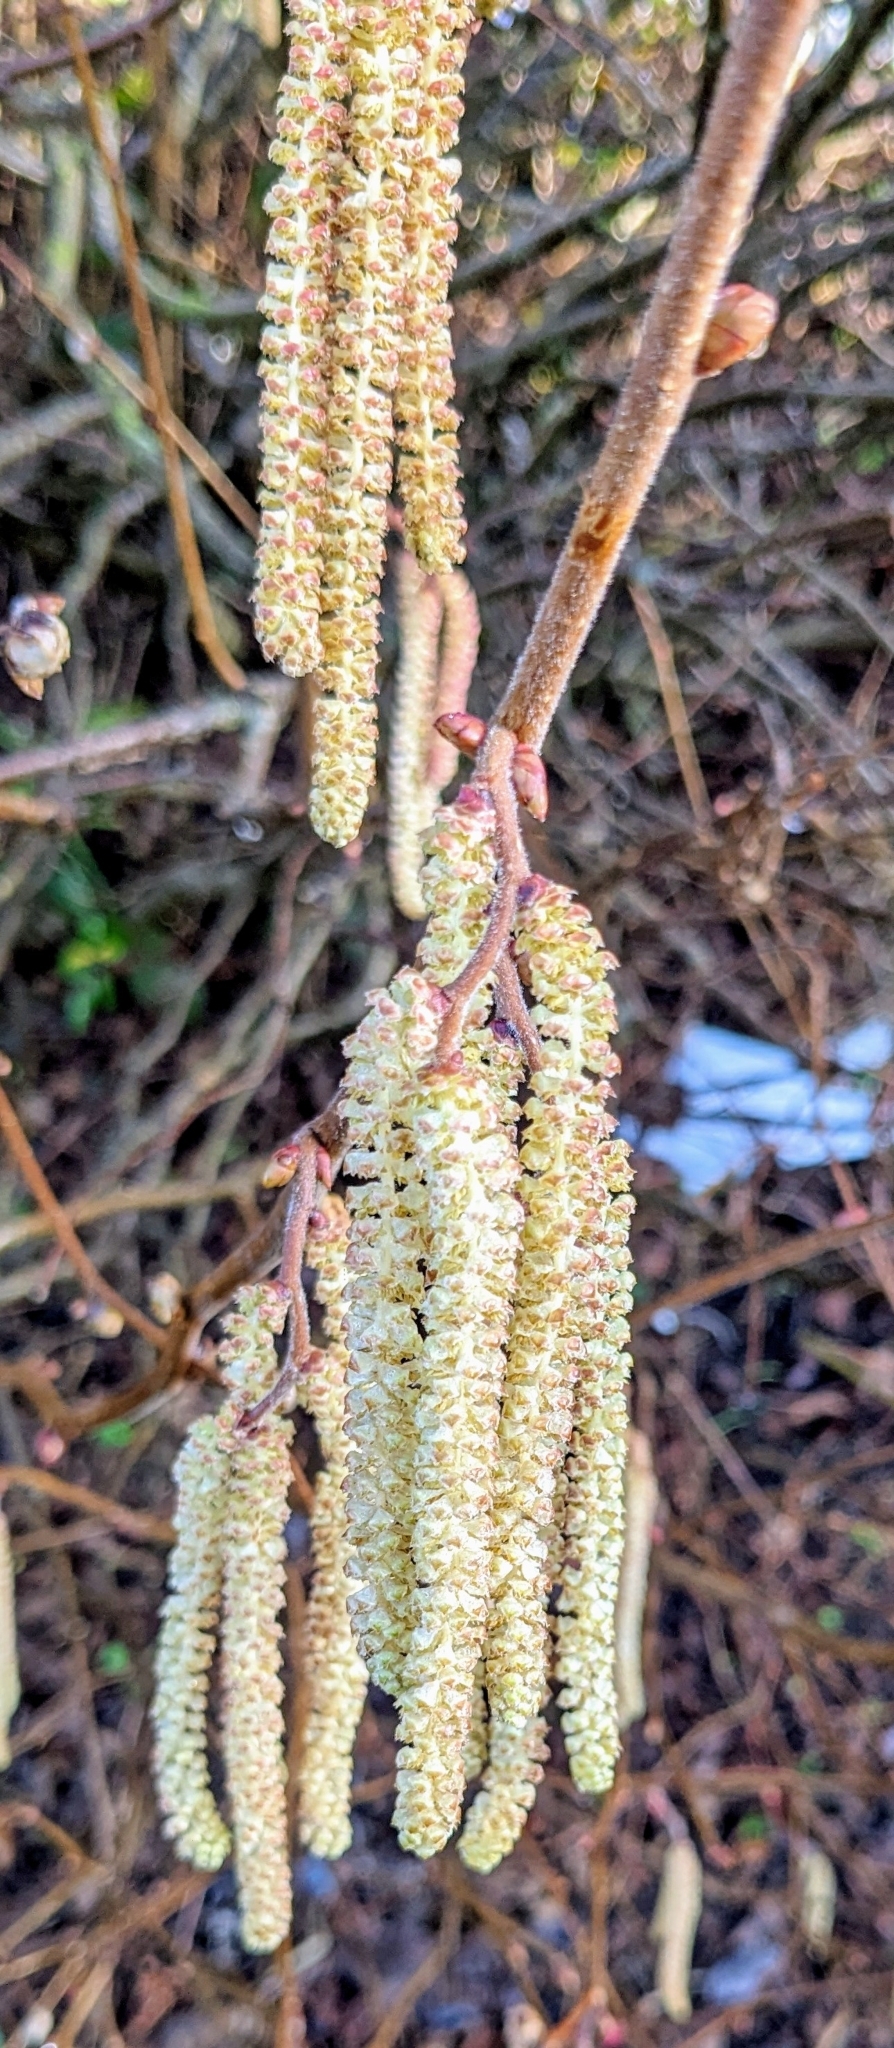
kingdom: Plantae
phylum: Tracheophyta
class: Magnoliopsida
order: Fagales
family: Betulaceae
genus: Corylus
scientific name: Corylus avellana
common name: European hazel
